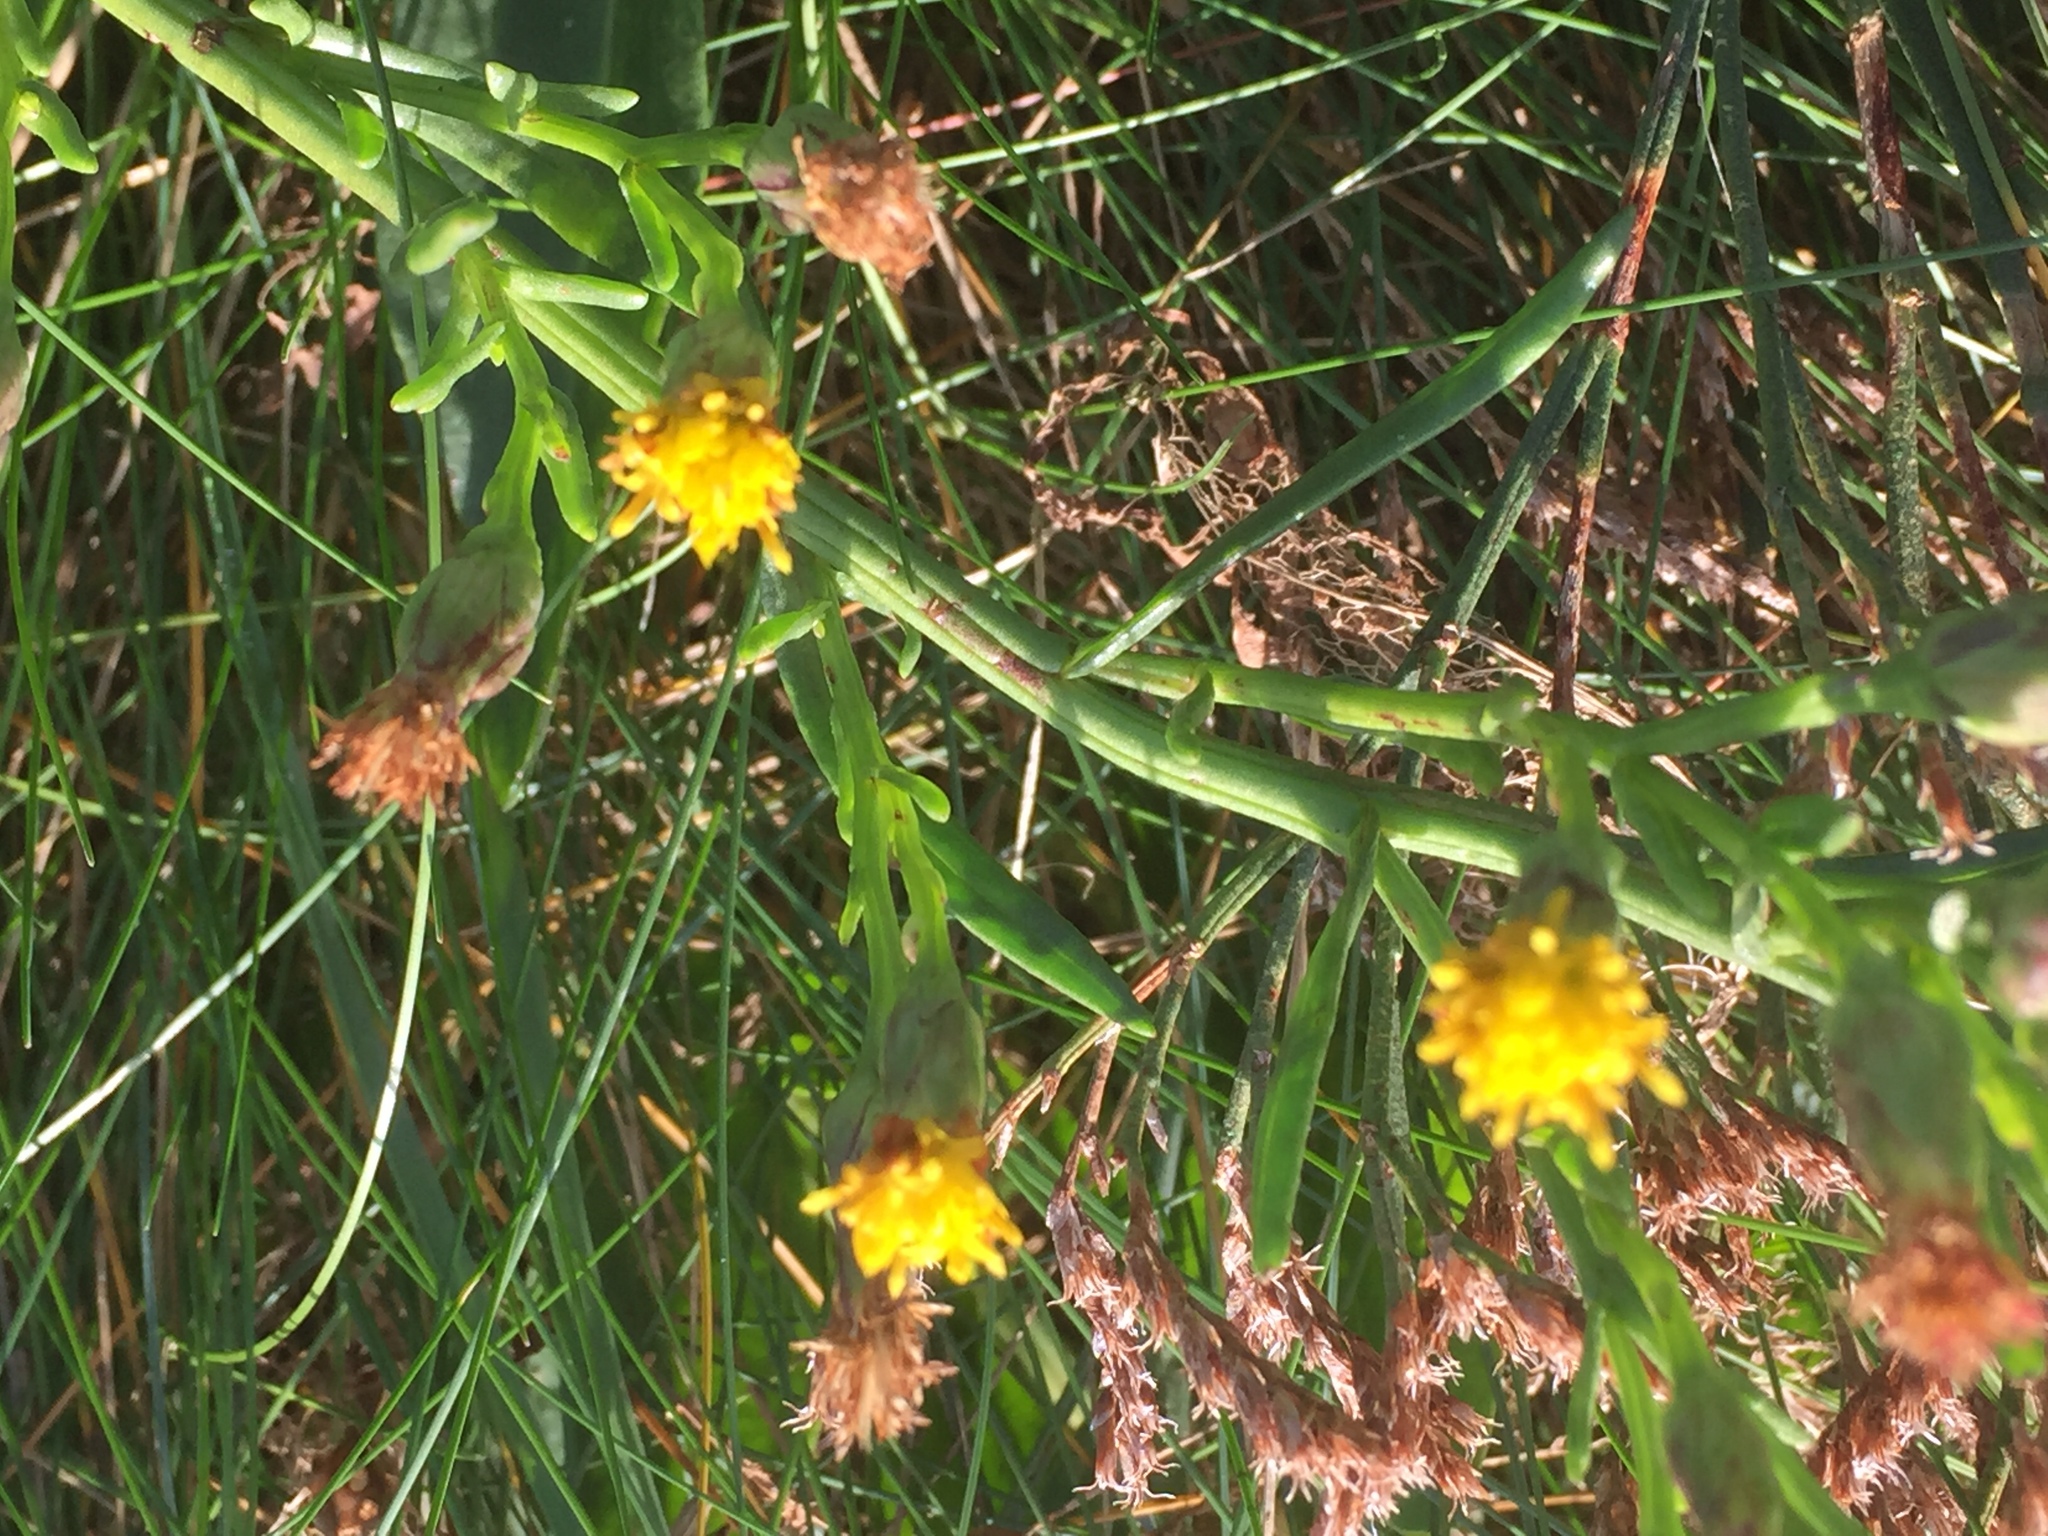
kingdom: Plantae
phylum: Tracheophyta
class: Magnoliopsida
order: Asterales
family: Asteraceae
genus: Tripolium
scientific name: Tripolium pannonicum
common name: Sea aster
